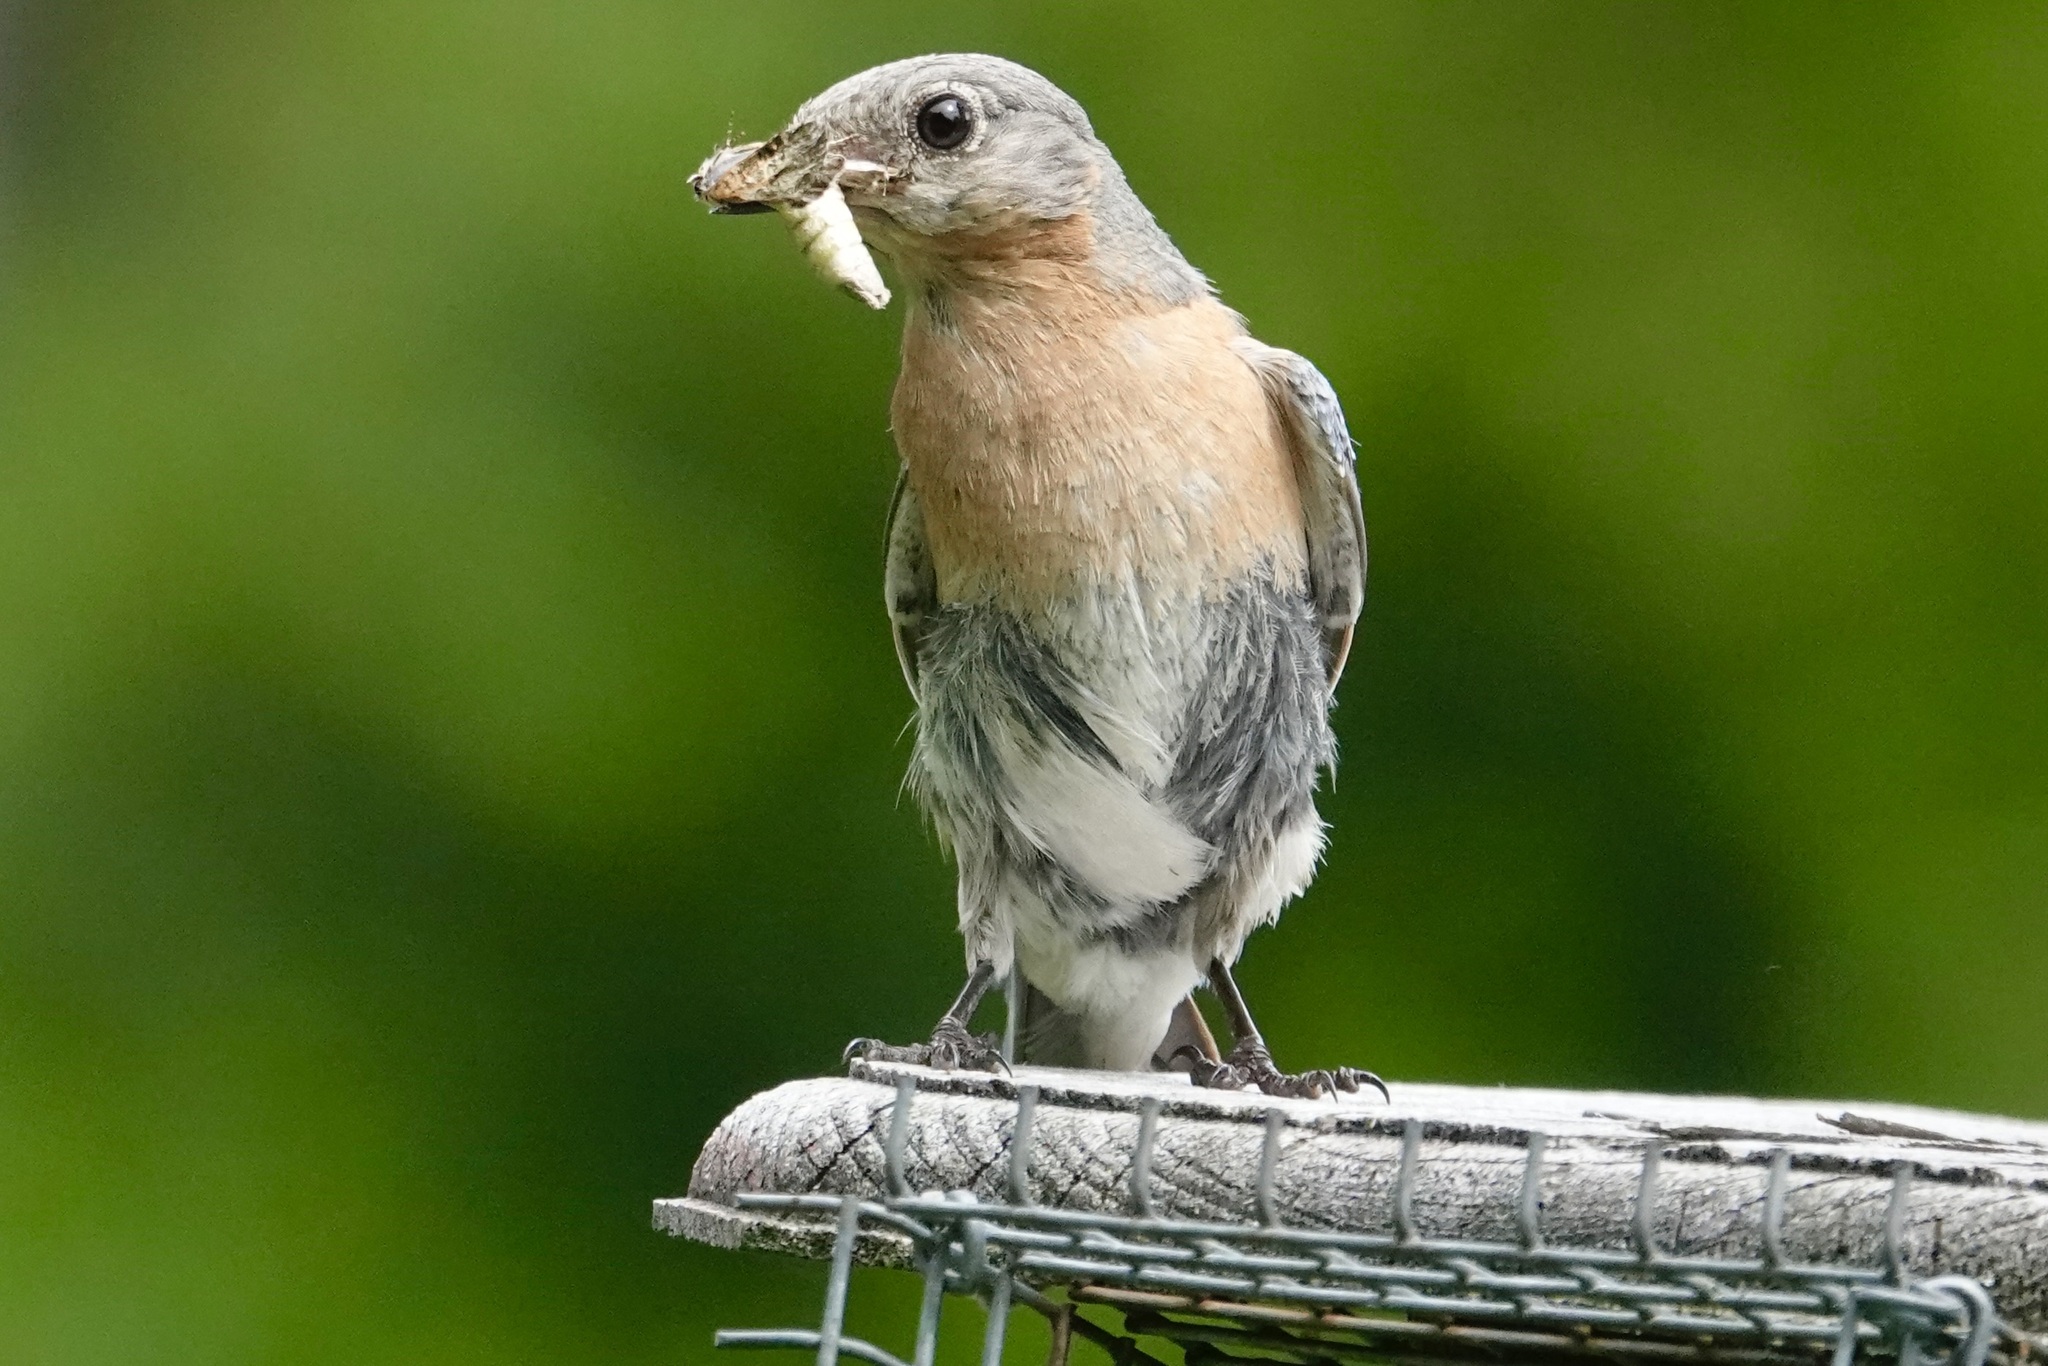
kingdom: Animalia
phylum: Chordata
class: Aves
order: Passeriformes
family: Turdidae
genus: Sialia
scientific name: Sialia sialis
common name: Eastern bluebird
